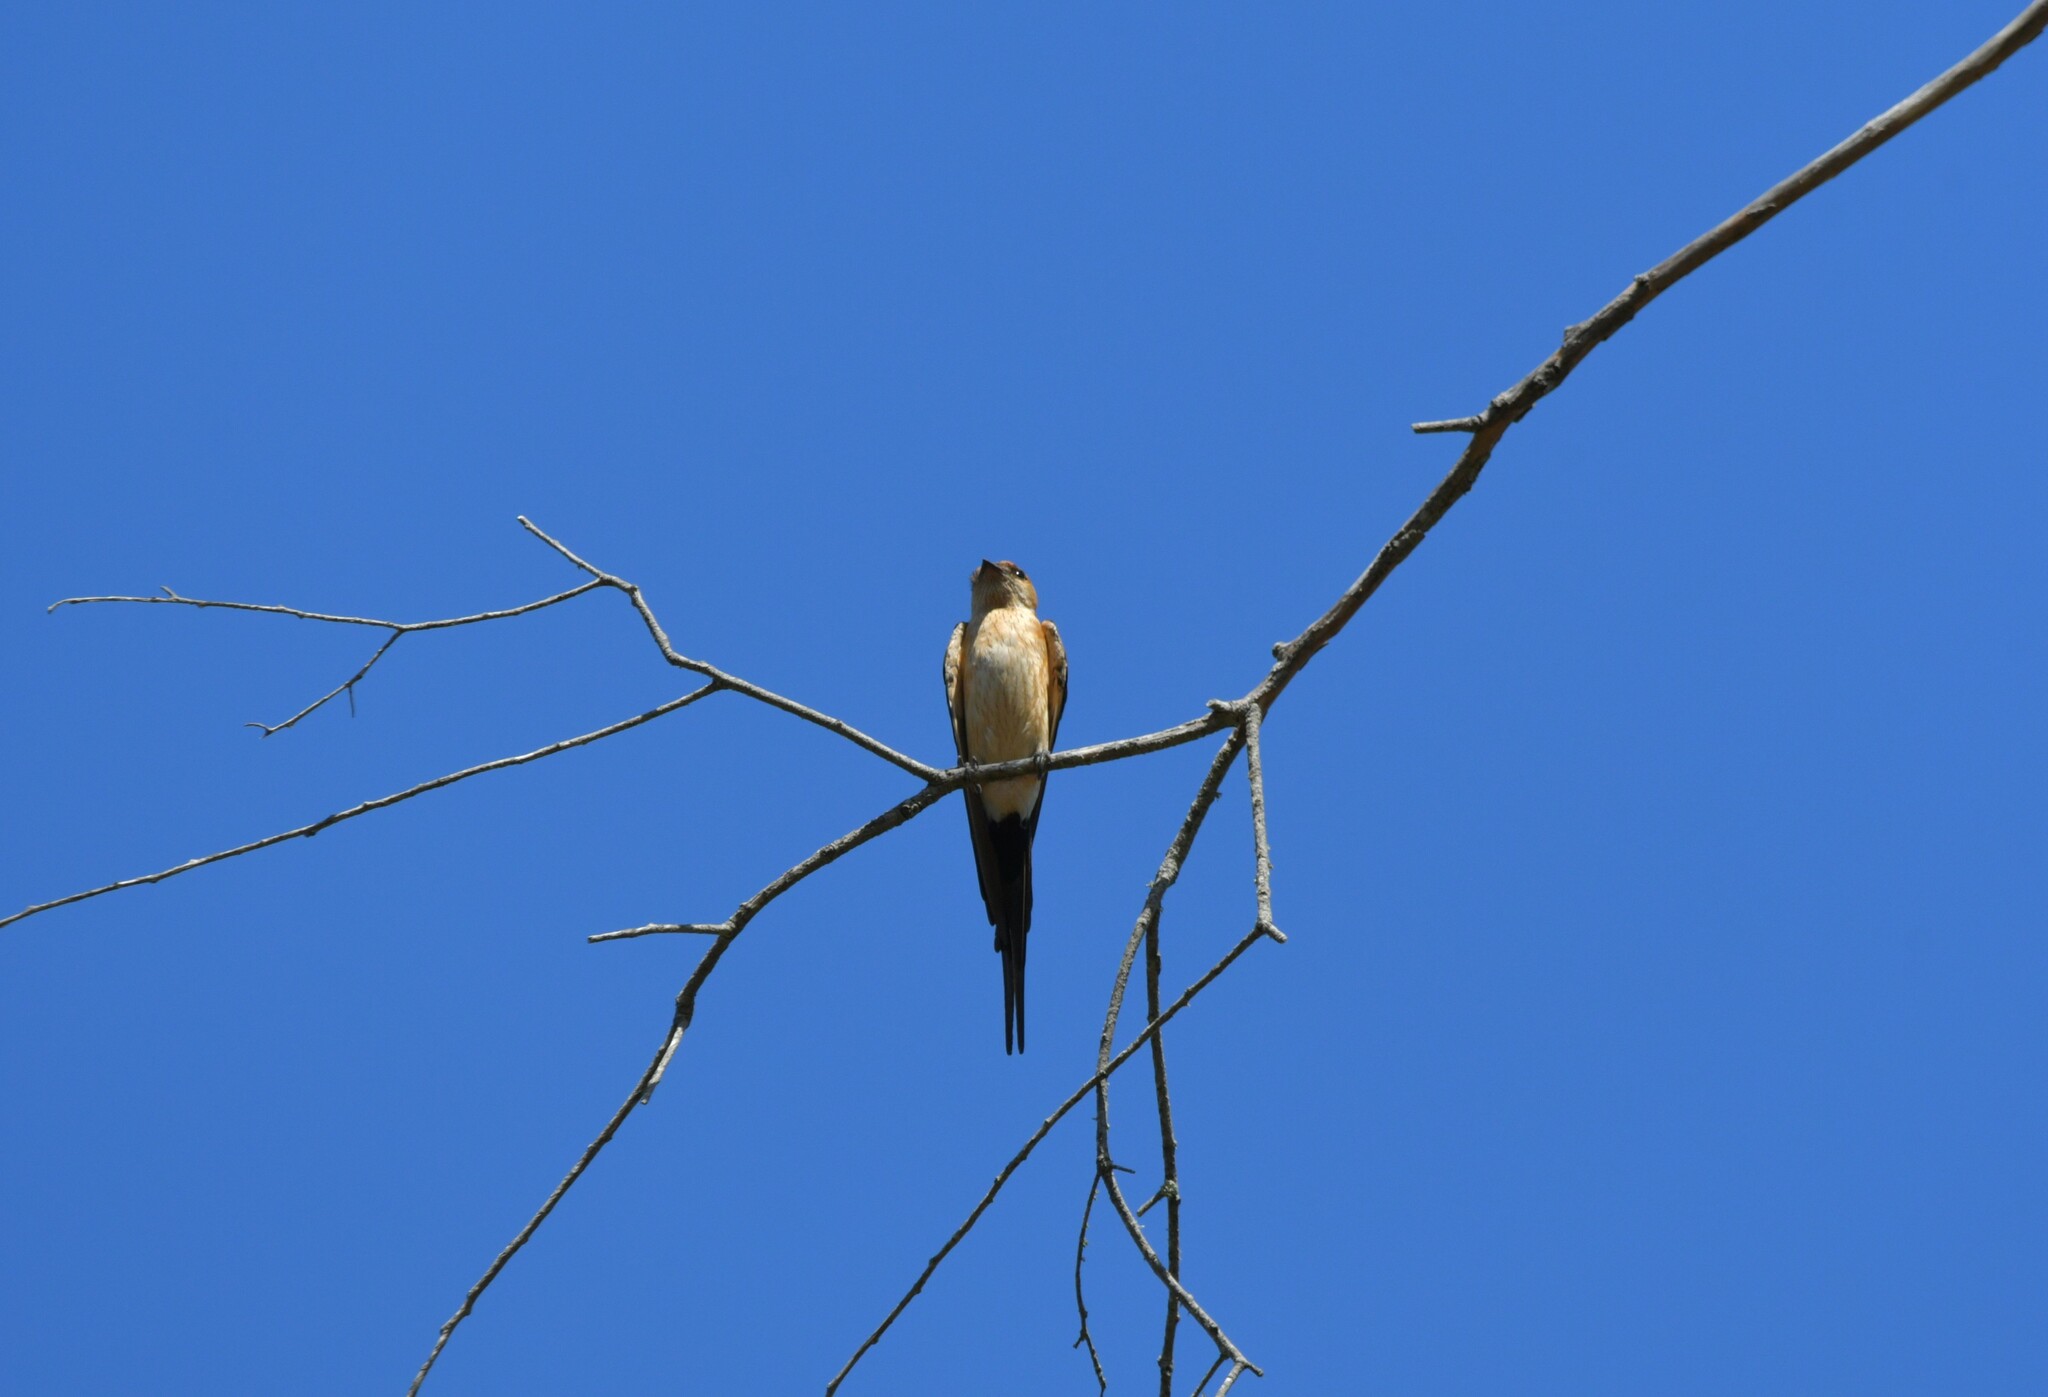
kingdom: Animalia
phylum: Chordata
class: Aves
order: Passeriformes
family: Hirundinidae
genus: Cecropis
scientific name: Cecropis daurica
